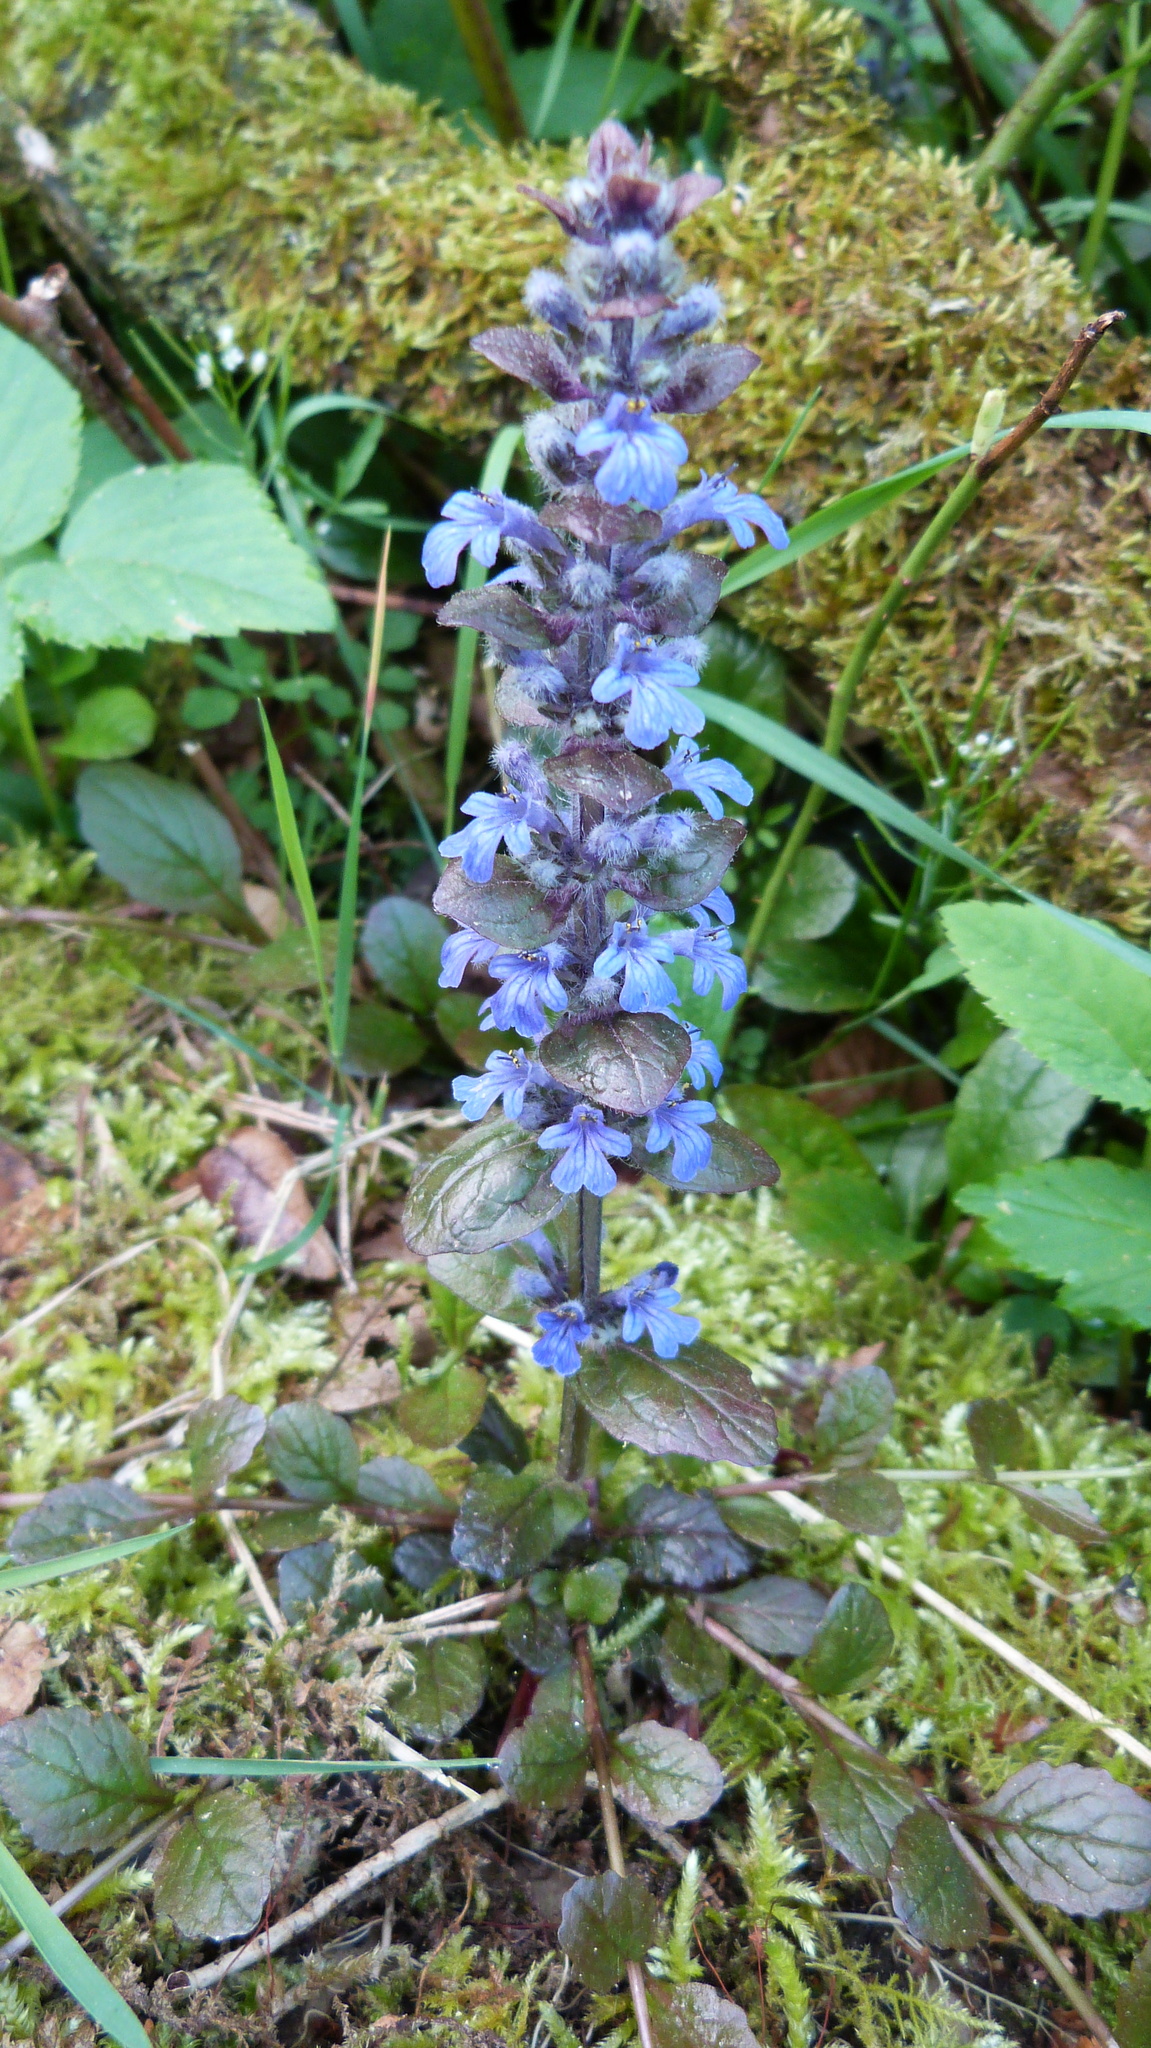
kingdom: Plantae
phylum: Tracheophyta
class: Magnoliopsida
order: Lamiales
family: Lamiaceae
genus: Ajuga
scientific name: Ajuga reptans
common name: Bugle
